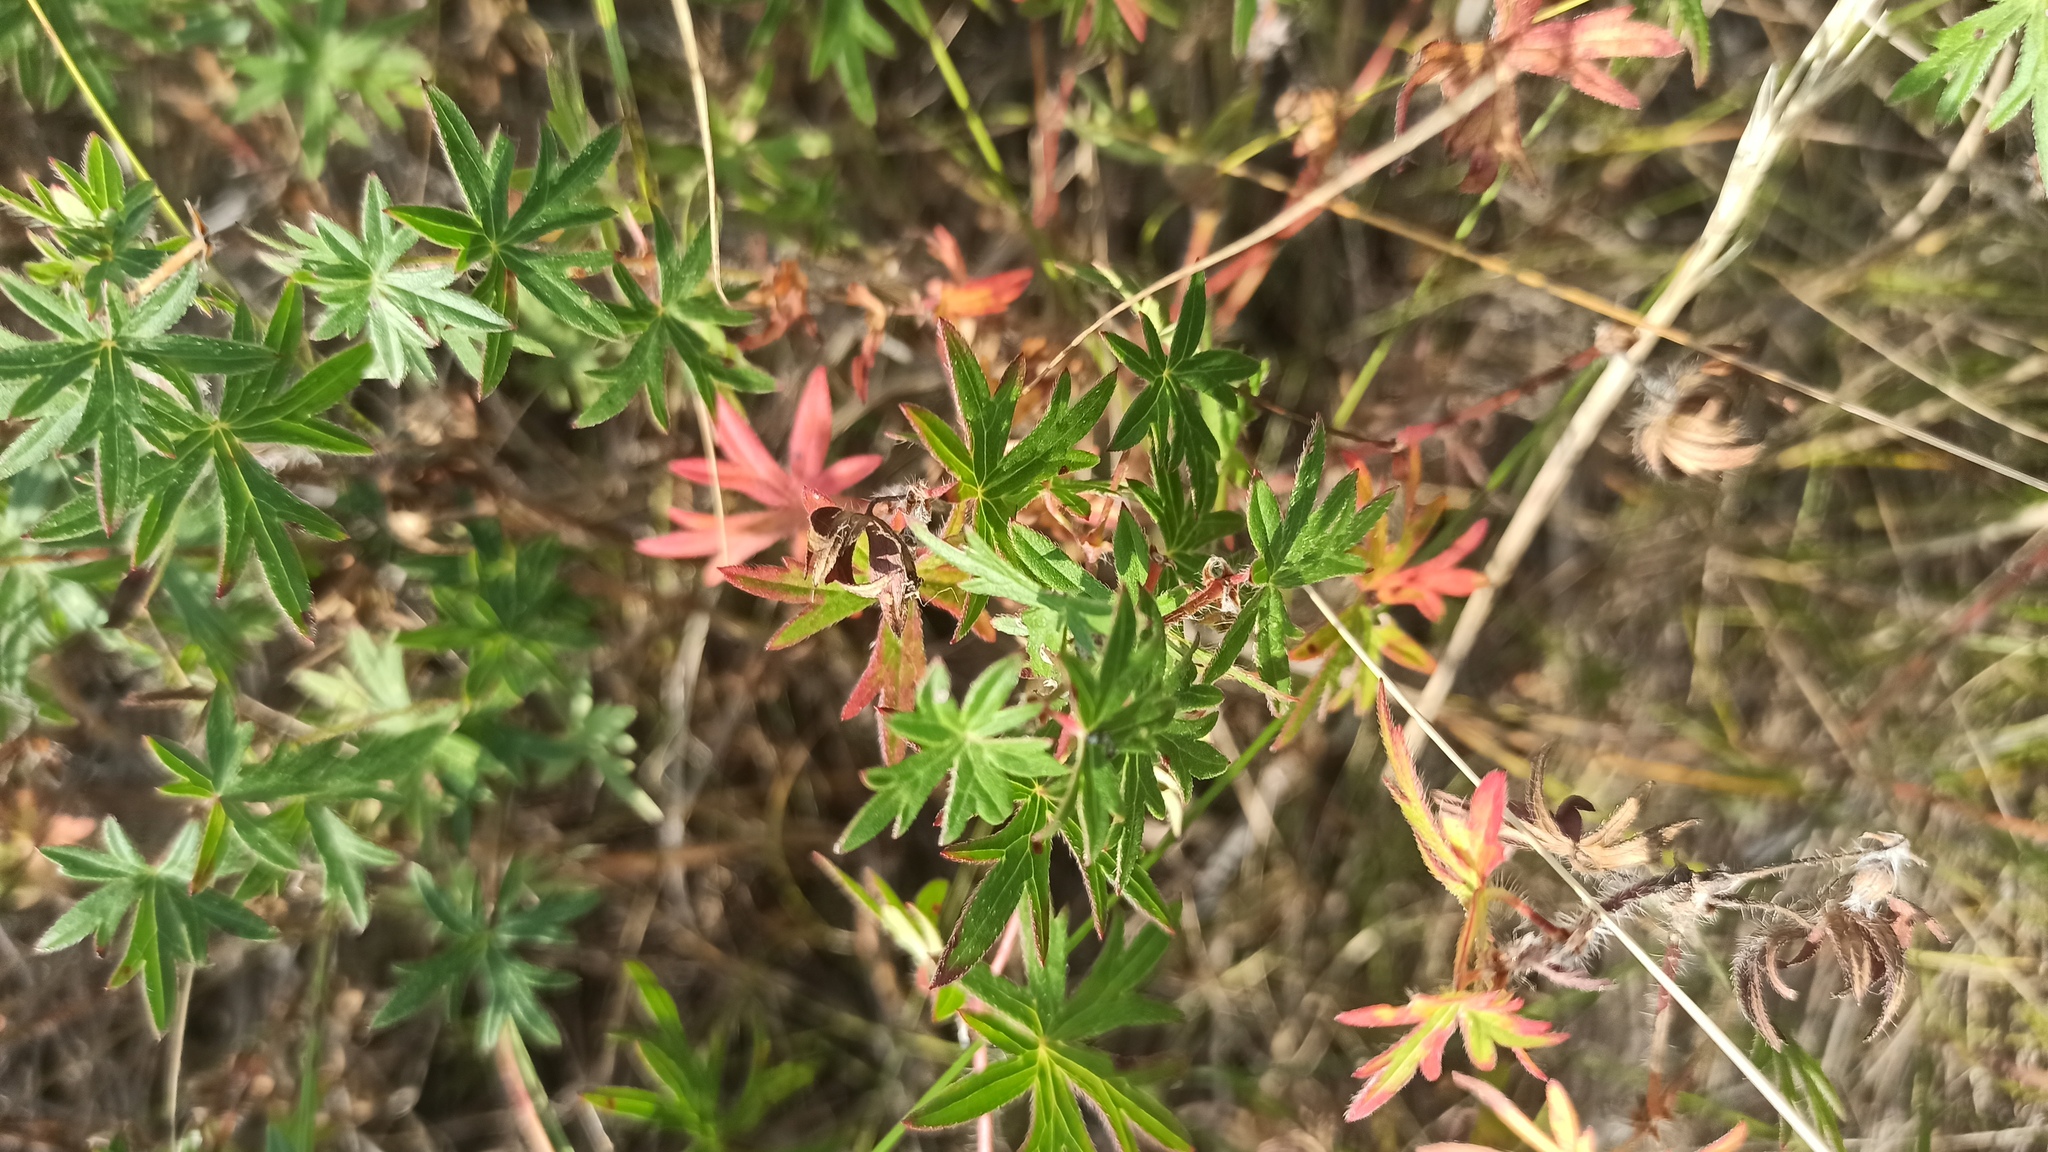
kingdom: Plantae
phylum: Tracheophyta
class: Magnoliopsida
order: Geraniales
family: Geraniaceae
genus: Geranium
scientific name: Geranium sanguineum
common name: Bloody crane's-bill
